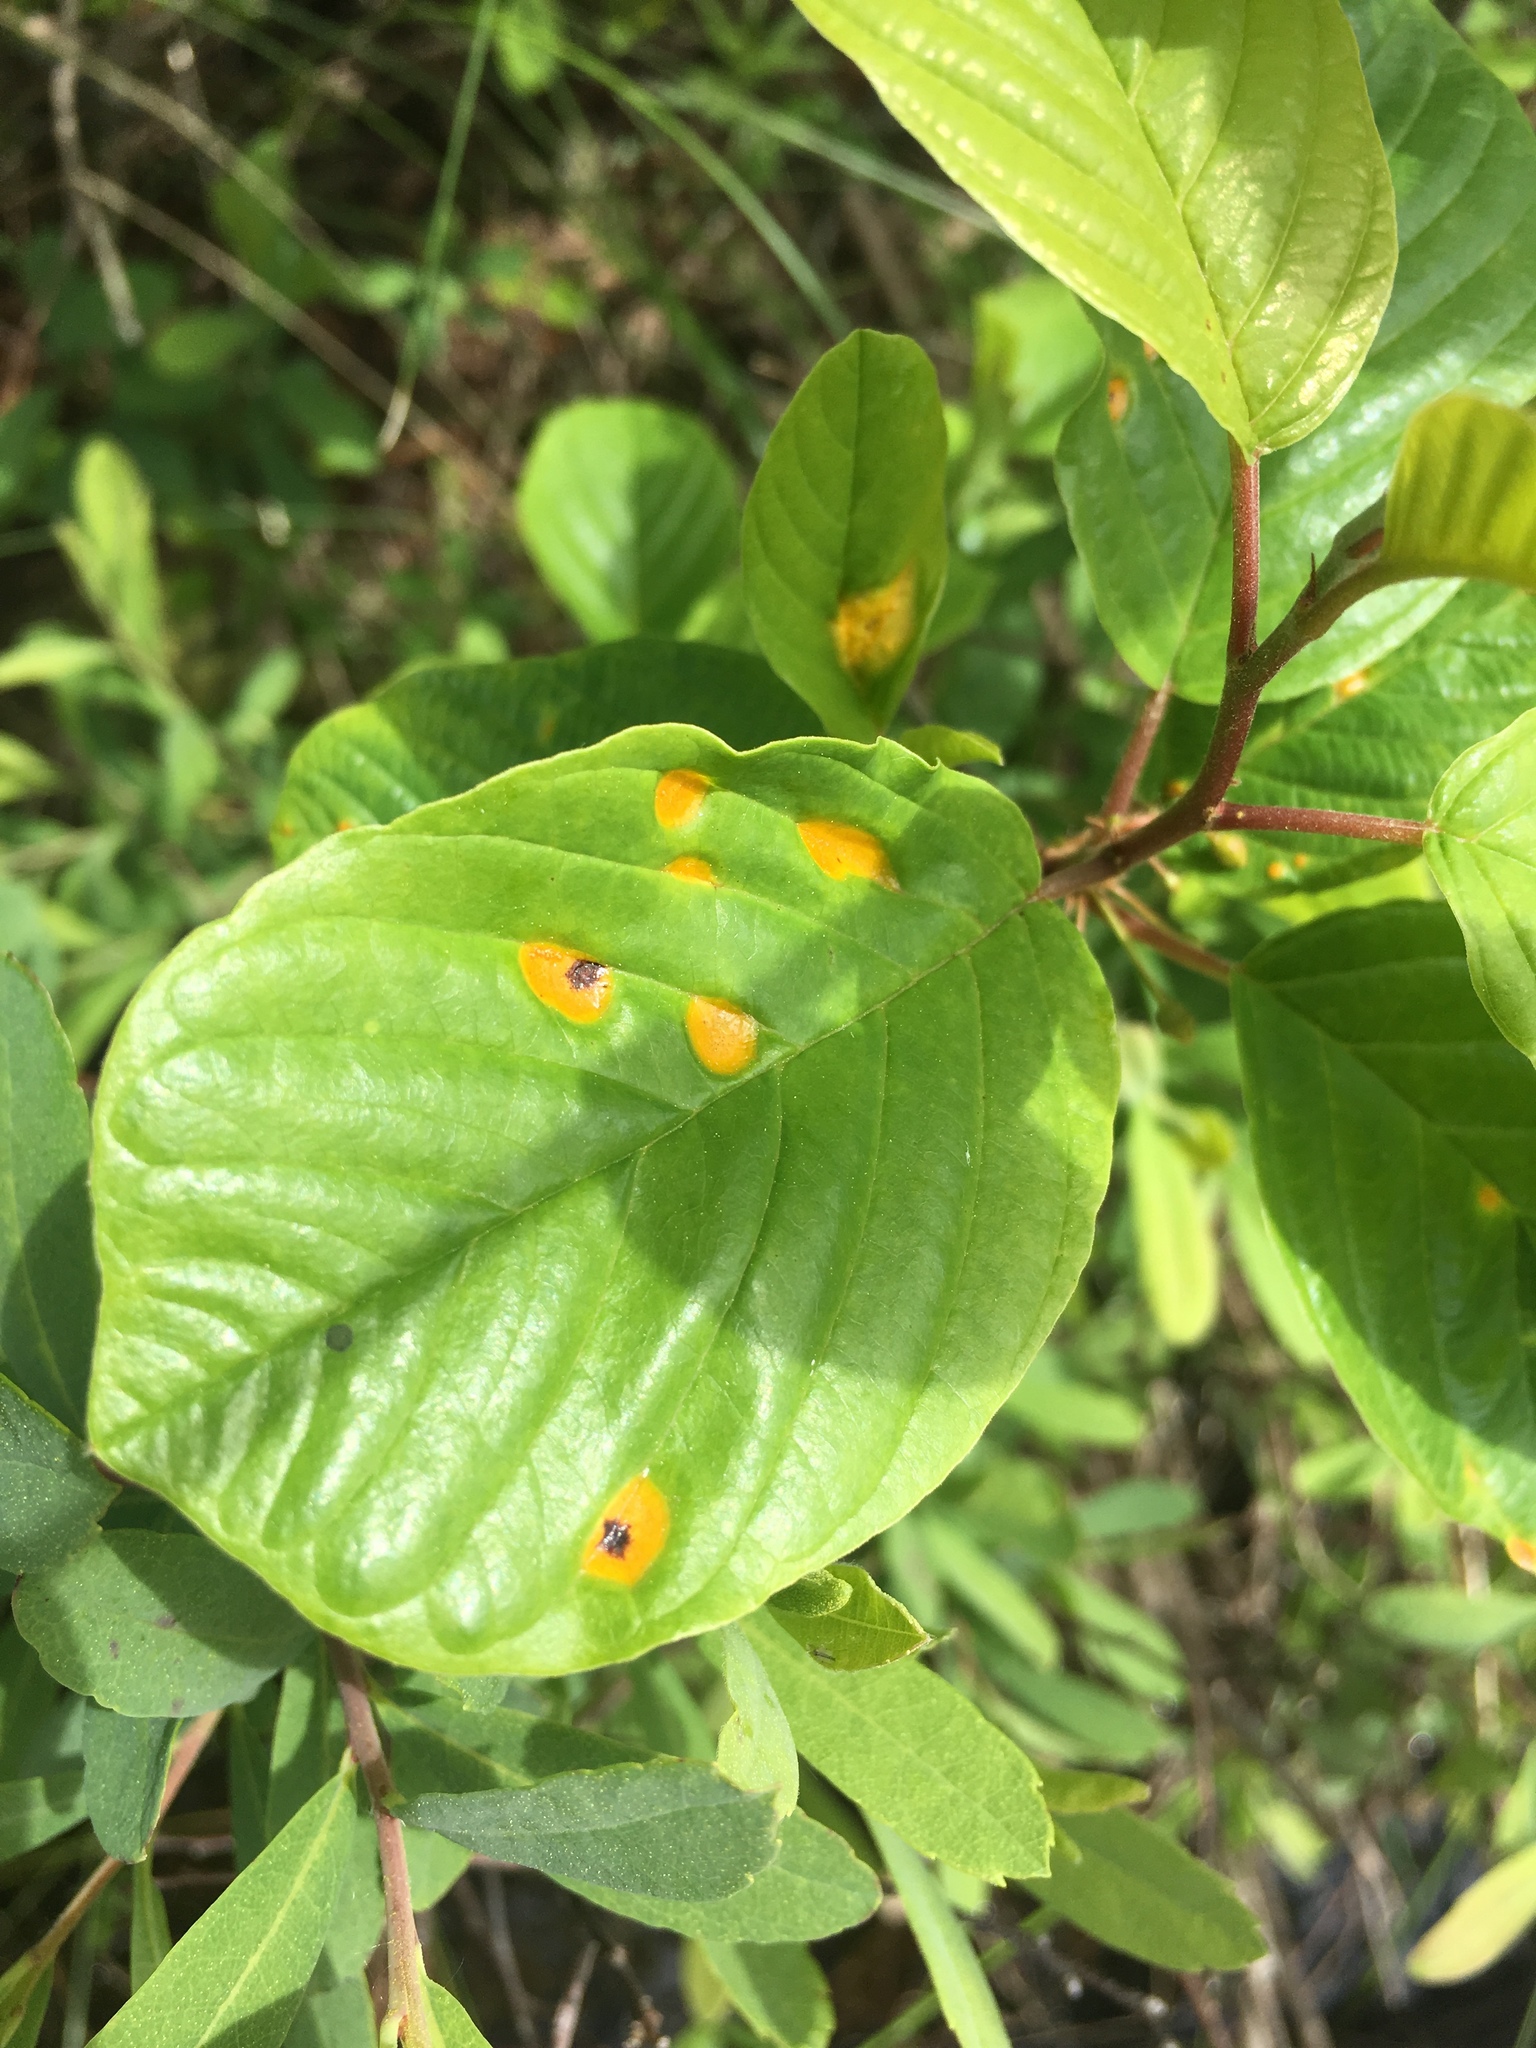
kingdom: Fungi
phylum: Basidiomycota
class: Pucciniomycetes
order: Pucciniales
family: Pucciniaceae
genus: Puccinia
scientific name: Puccinia coronata
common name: Crown rust
